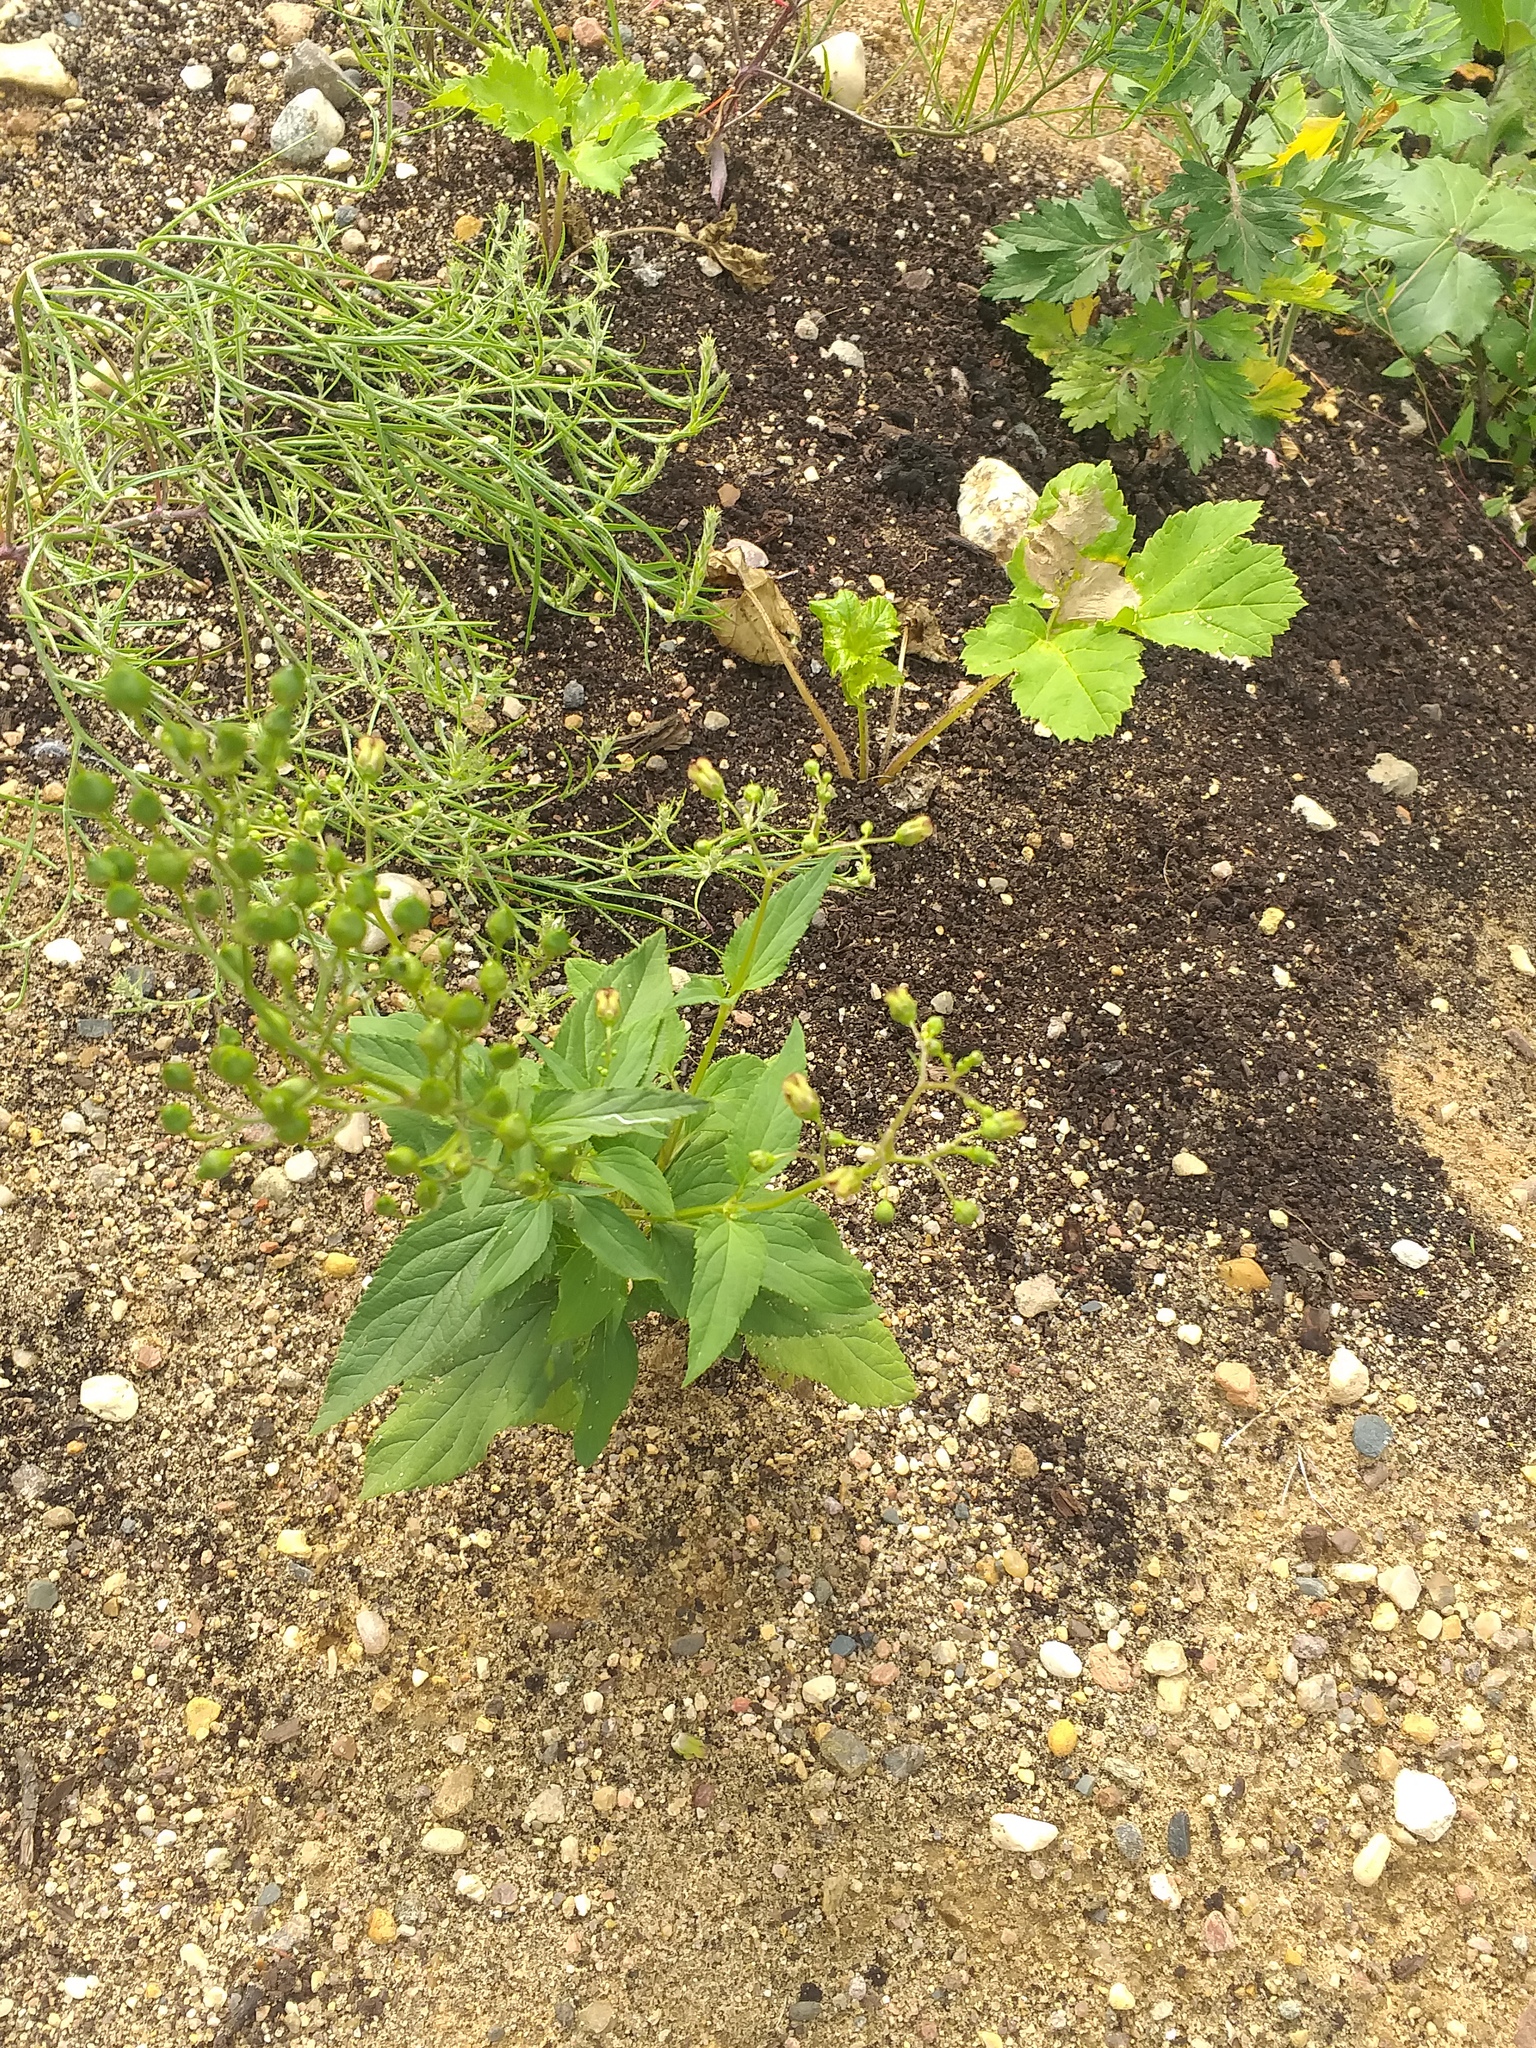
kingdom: Plantae
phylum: Tracheophyta
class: Magnoliopsida
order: Lamiales
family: Scrophulariaceae
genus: Scrophularia
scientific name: Scrophularia nodosa
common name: Common figwort
